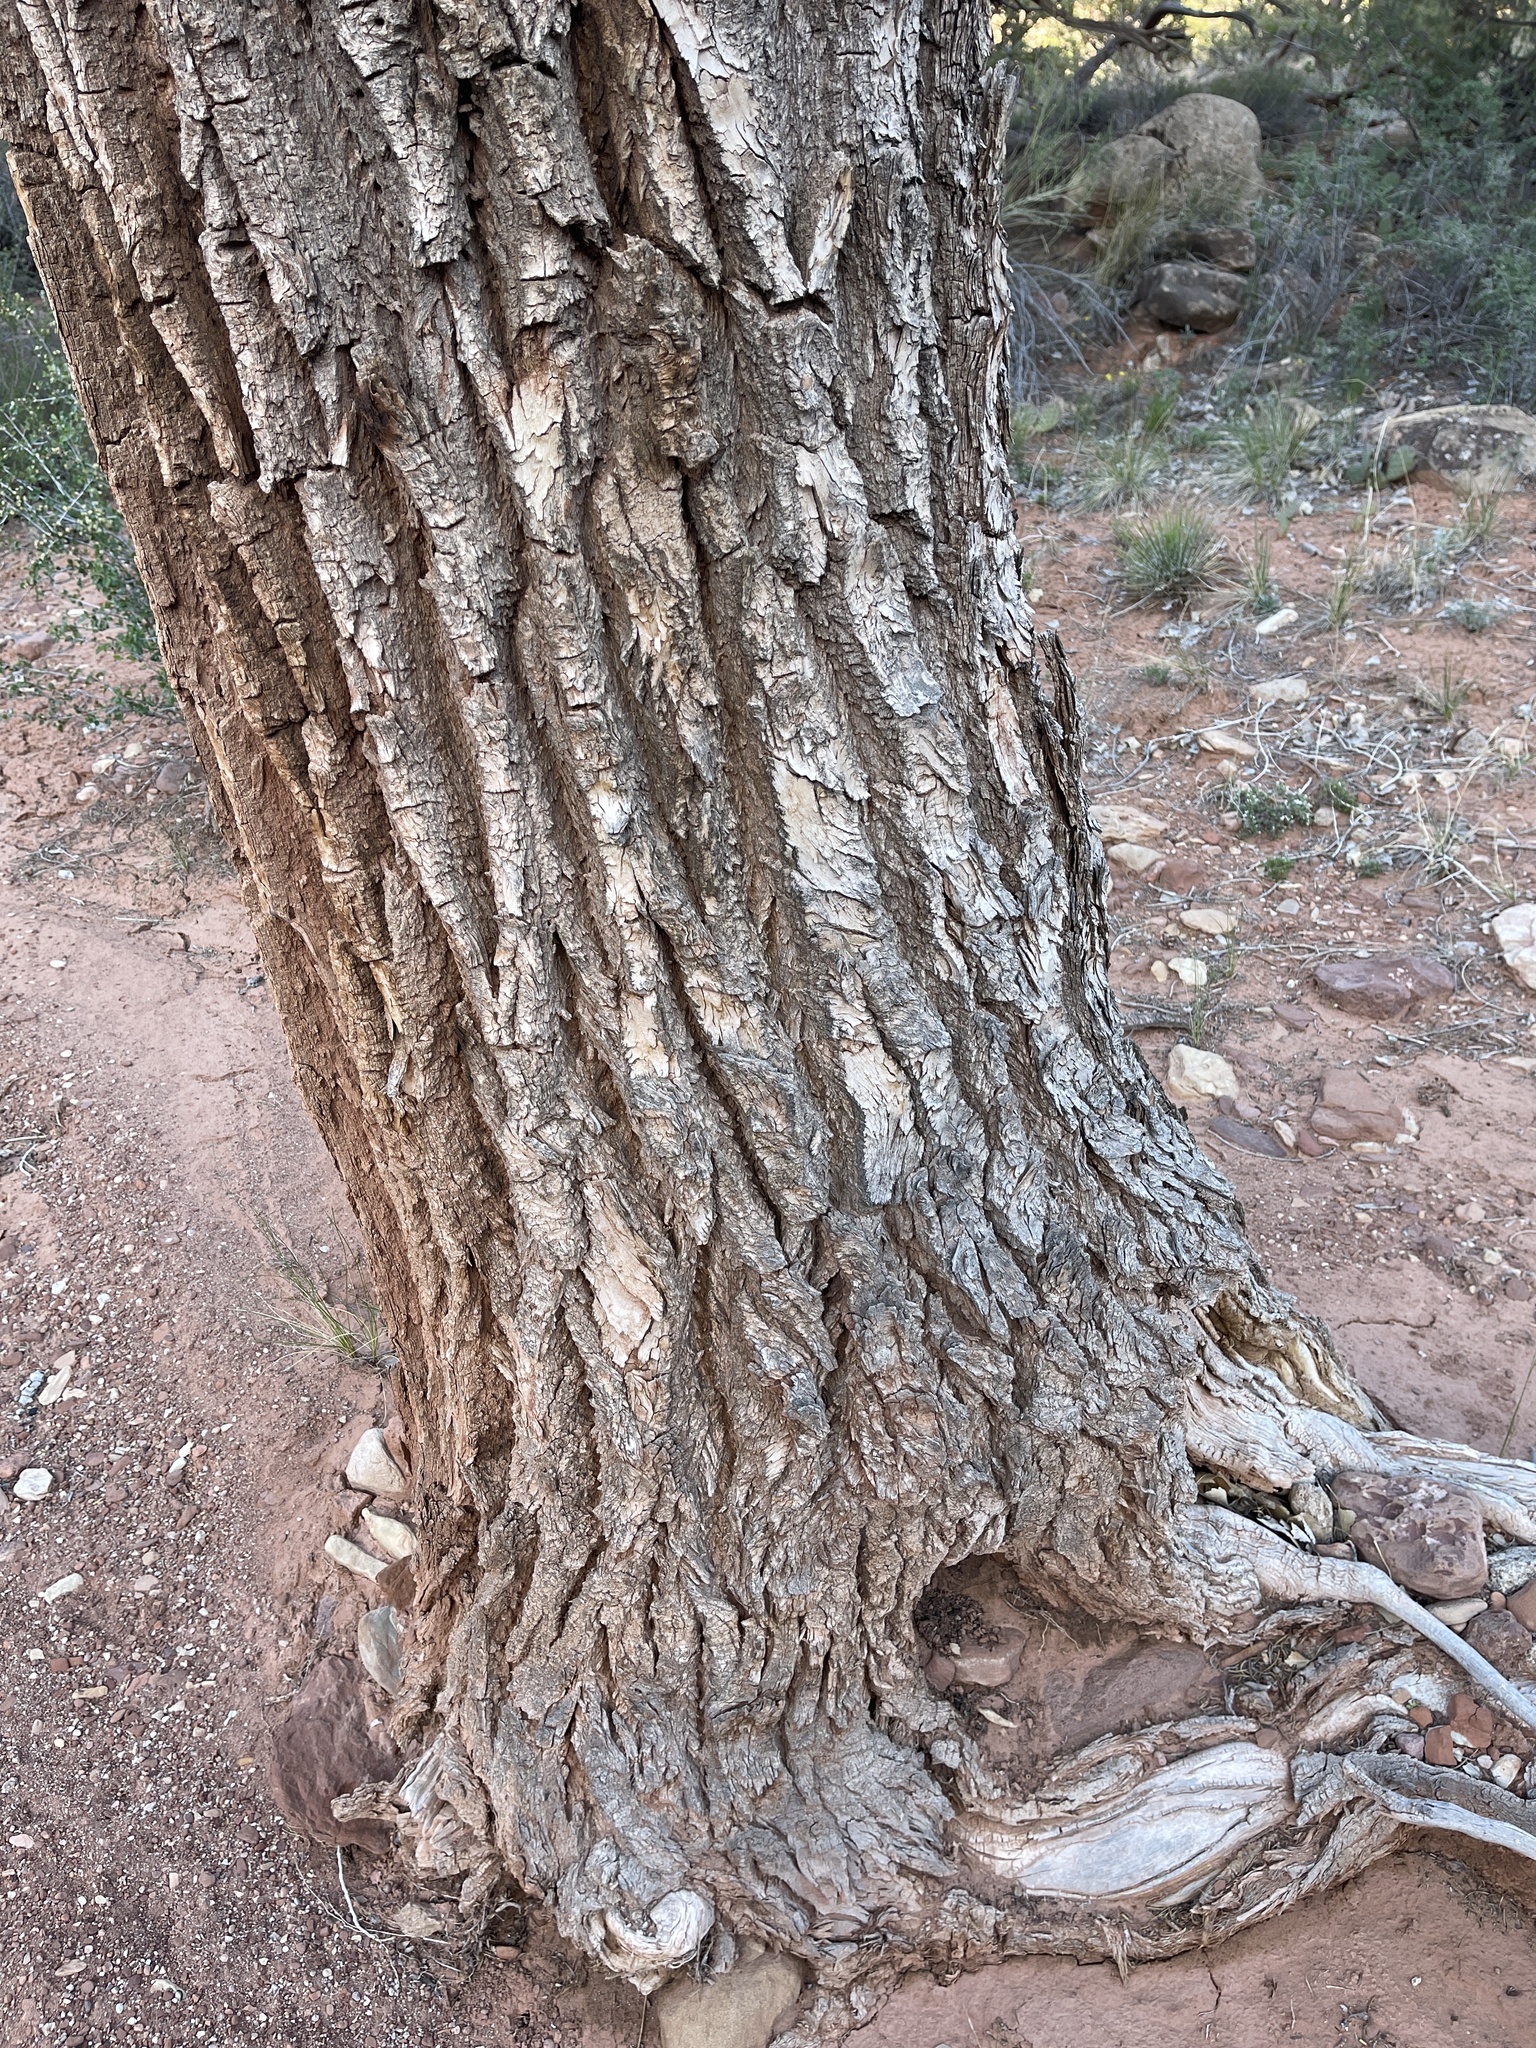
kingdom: Plantae
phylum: Tracheophyta
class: Magnoliopsida
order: Malpighiales
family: Salicaceae
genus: Populus
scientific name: Populus fremontii
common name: Fremont's cottonwood
